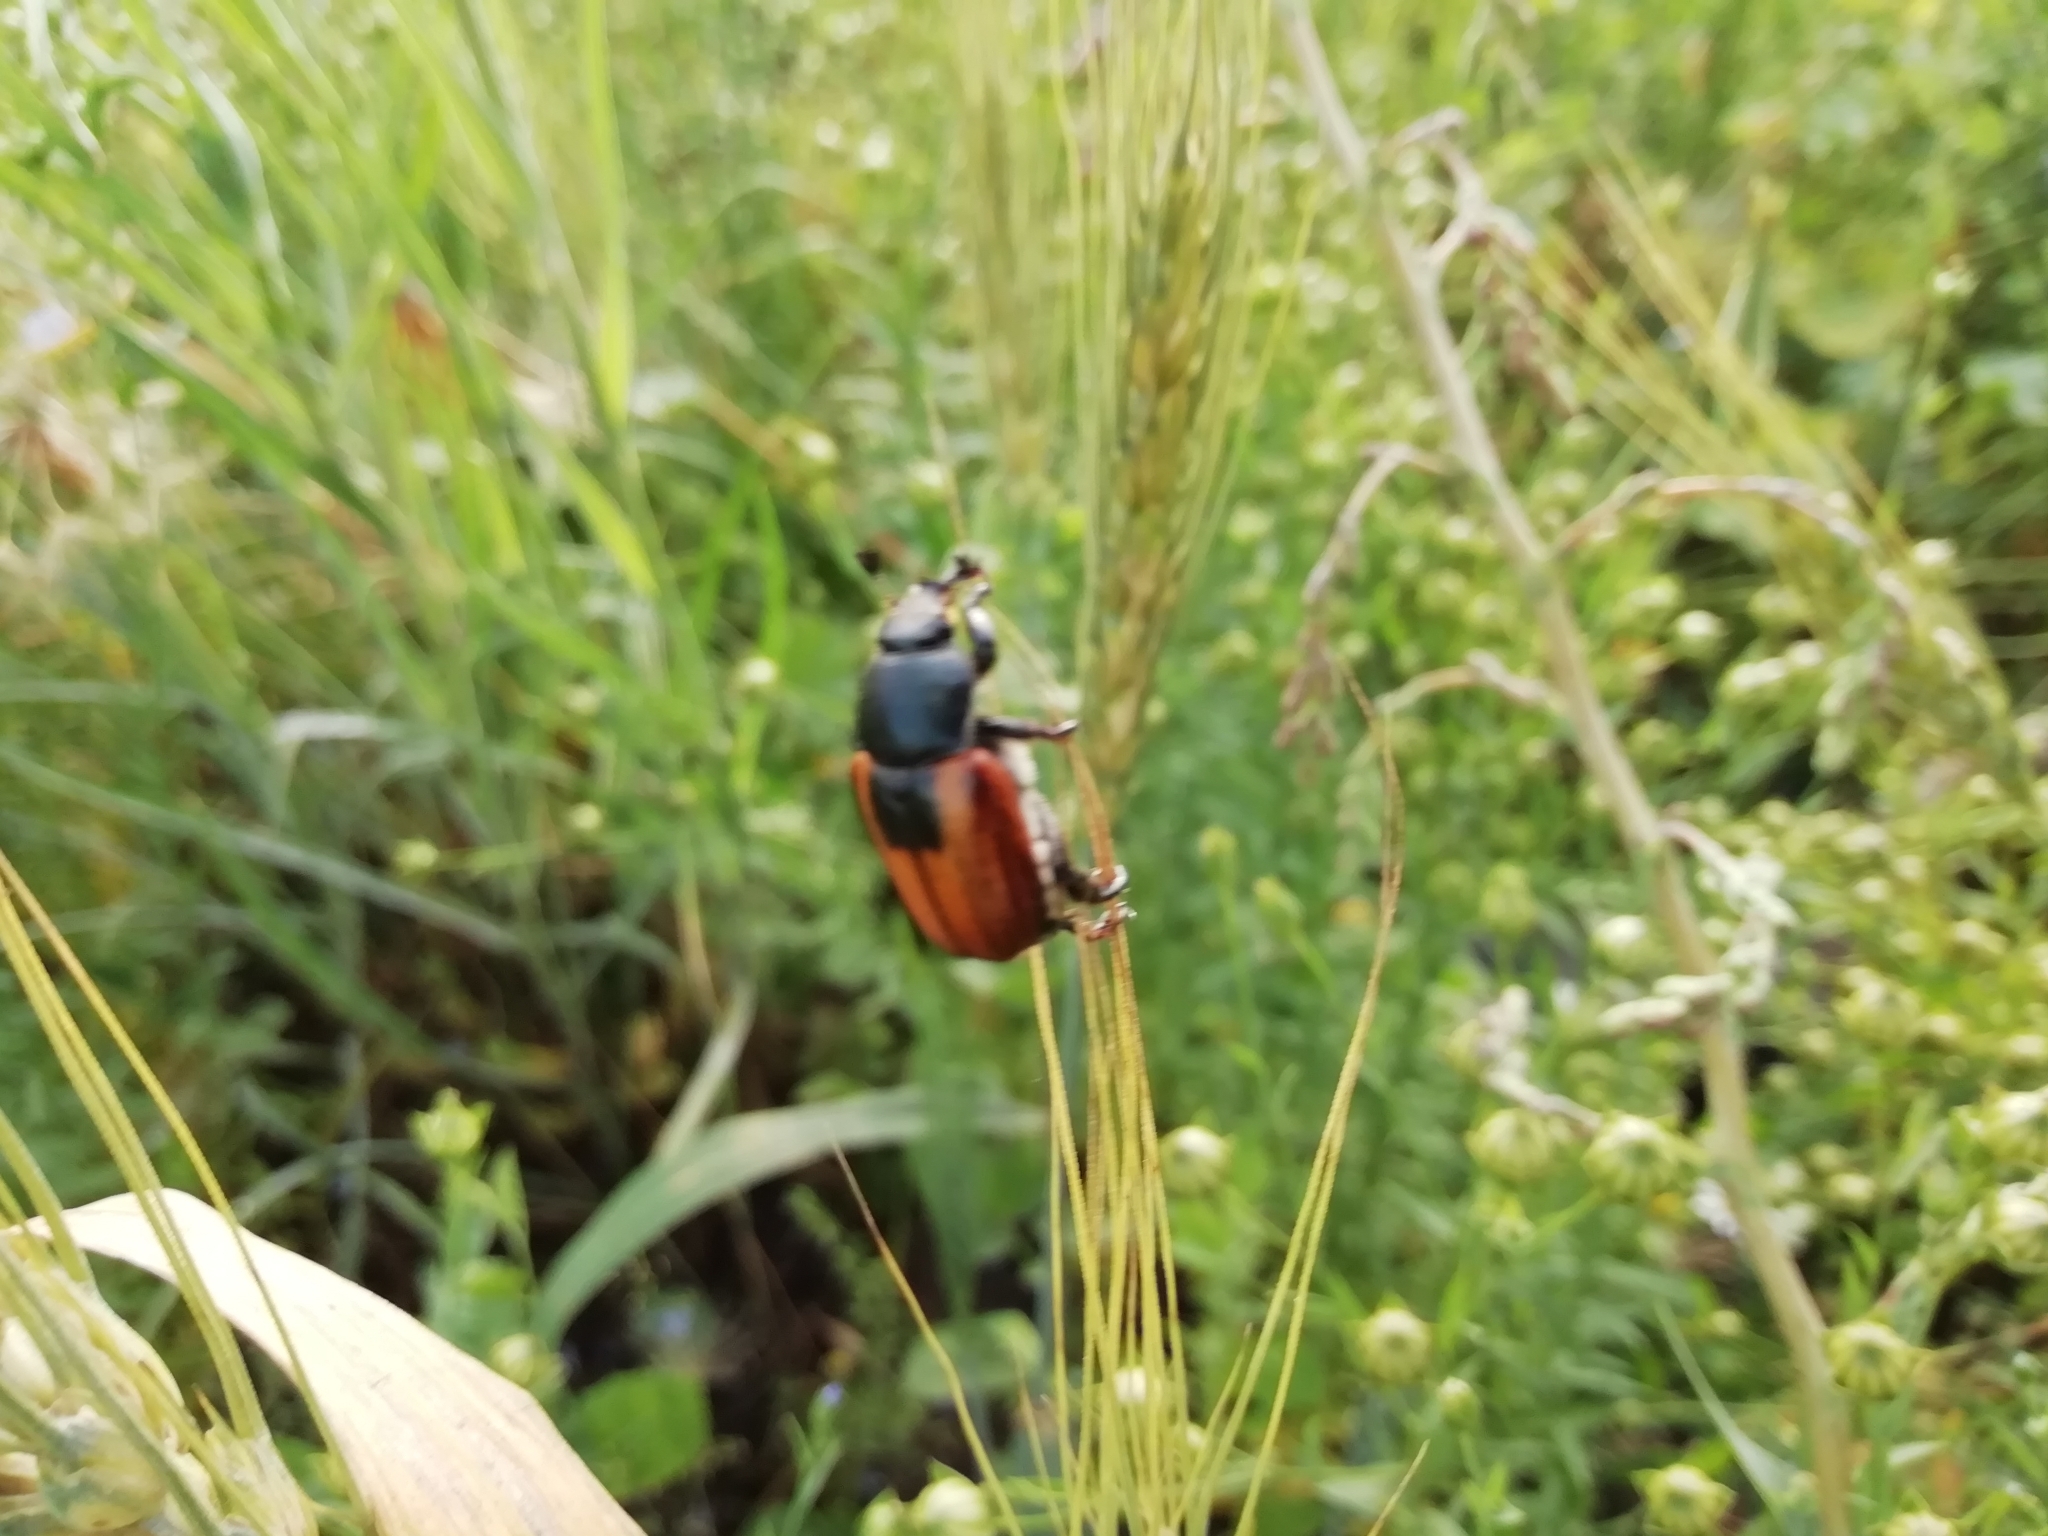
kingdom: Animalia
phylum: Arthropoda
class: Insecta
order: Coleoptera
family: Scarabaeidae
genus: Anisoplia
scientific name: Anisoplia austriaca
